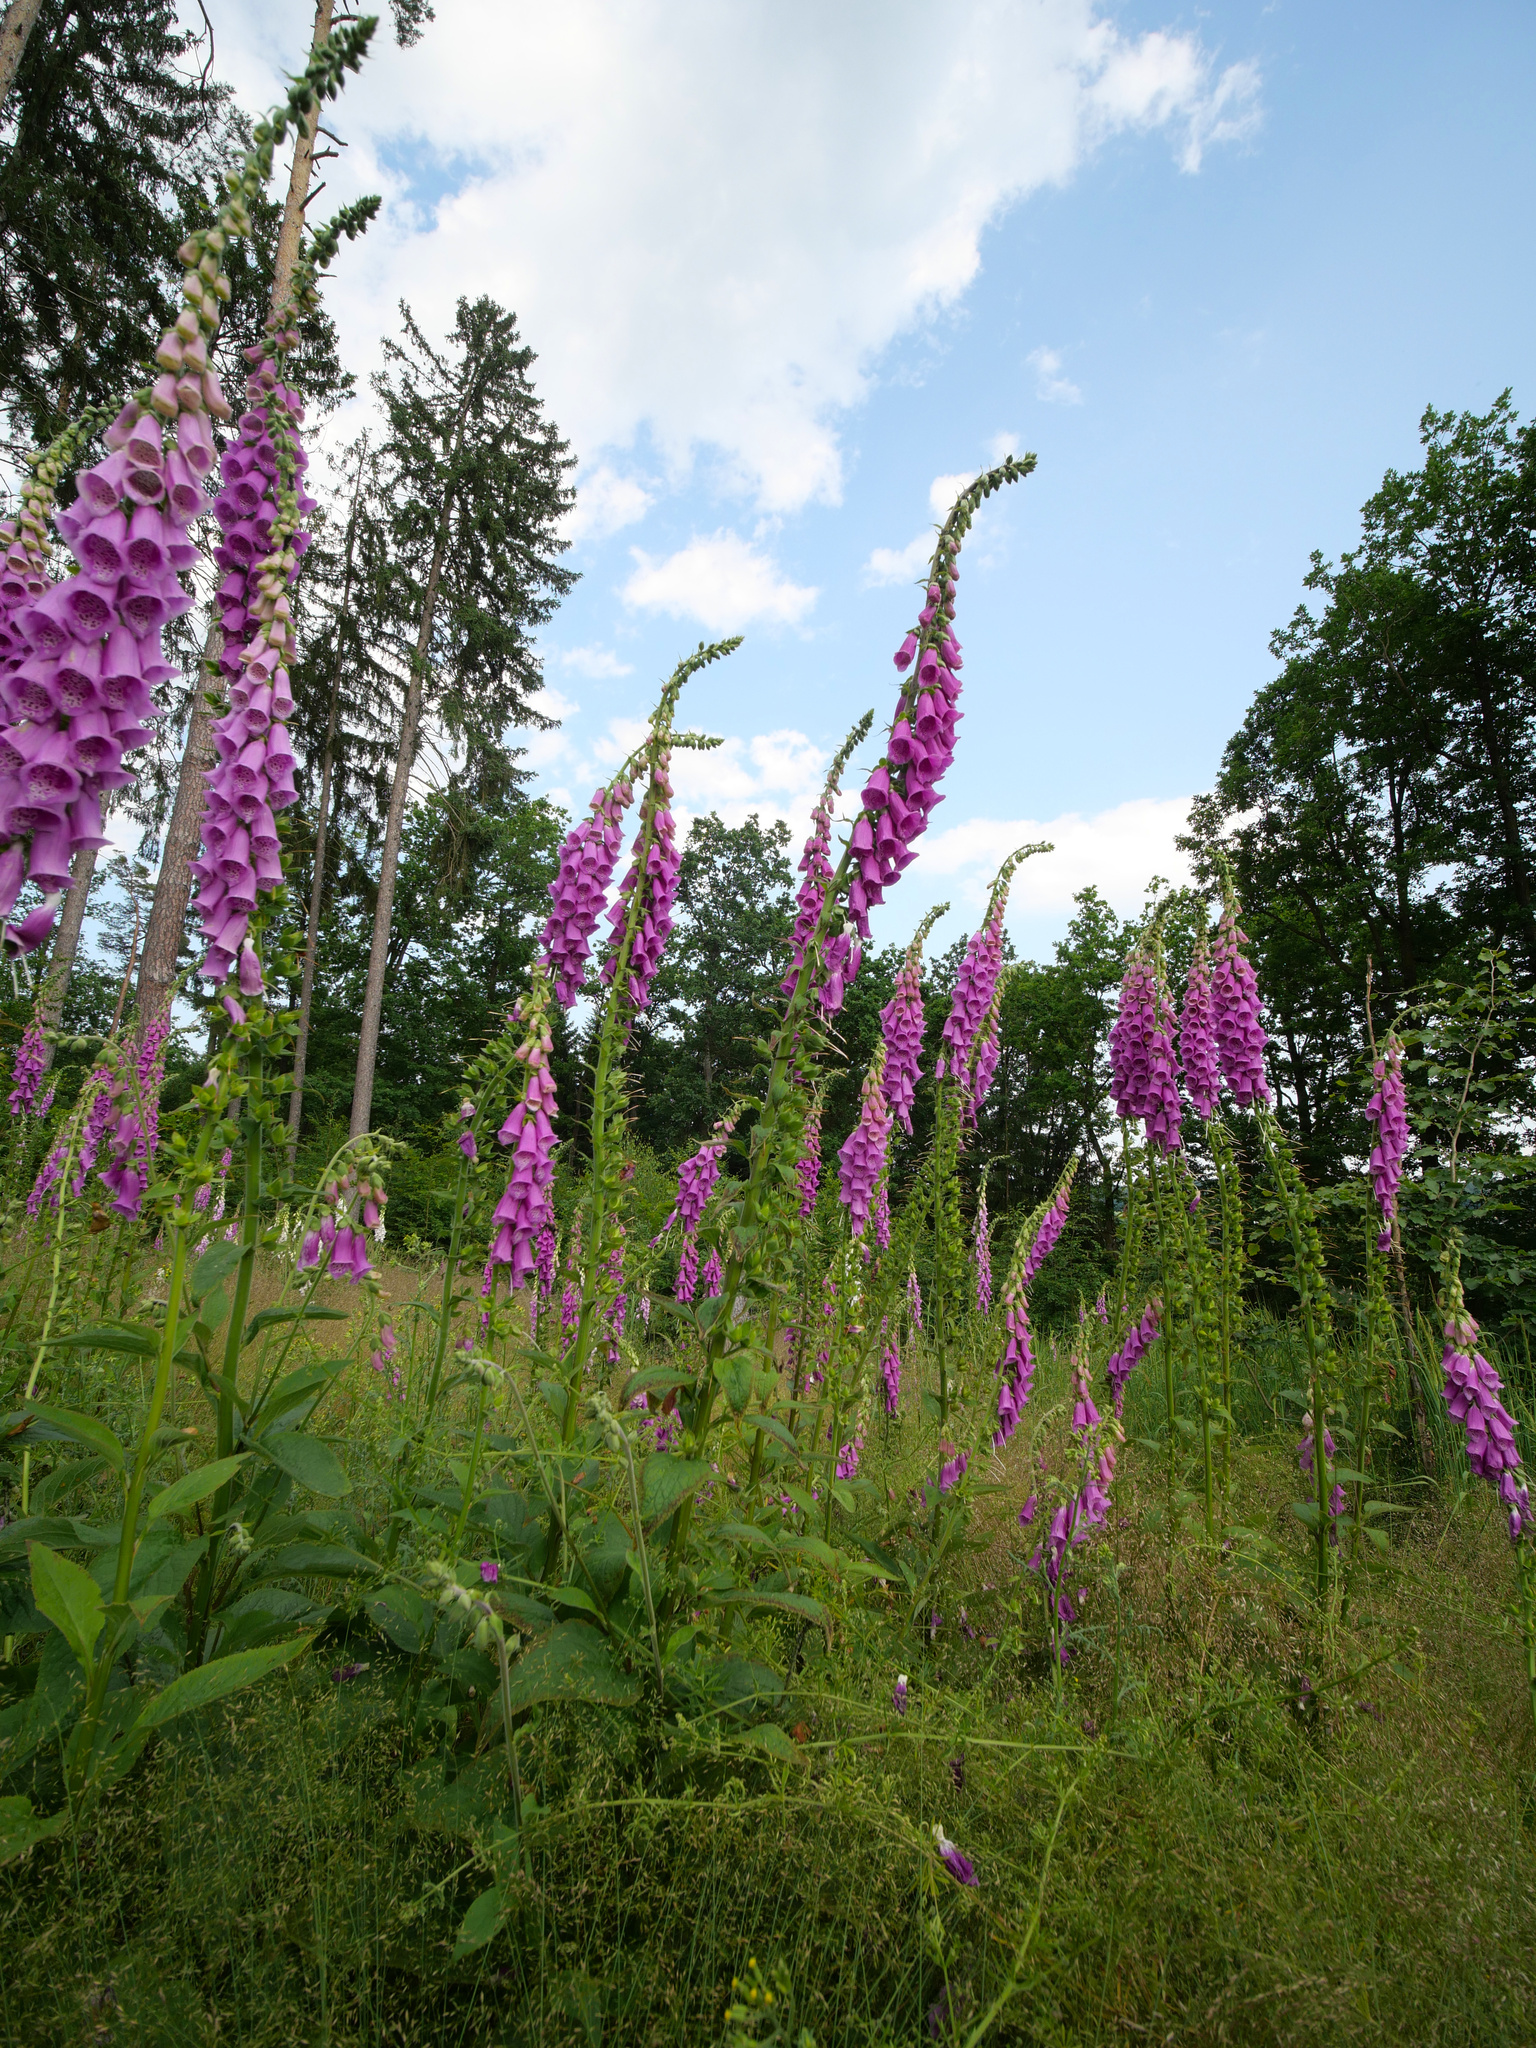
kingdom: Plantae
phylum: Tracheophyta
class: Magnoliopsida
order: Lamiales
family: Plantaginaceae
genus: Digitalis
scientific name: Digitalis purpurea
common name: Foxglove
